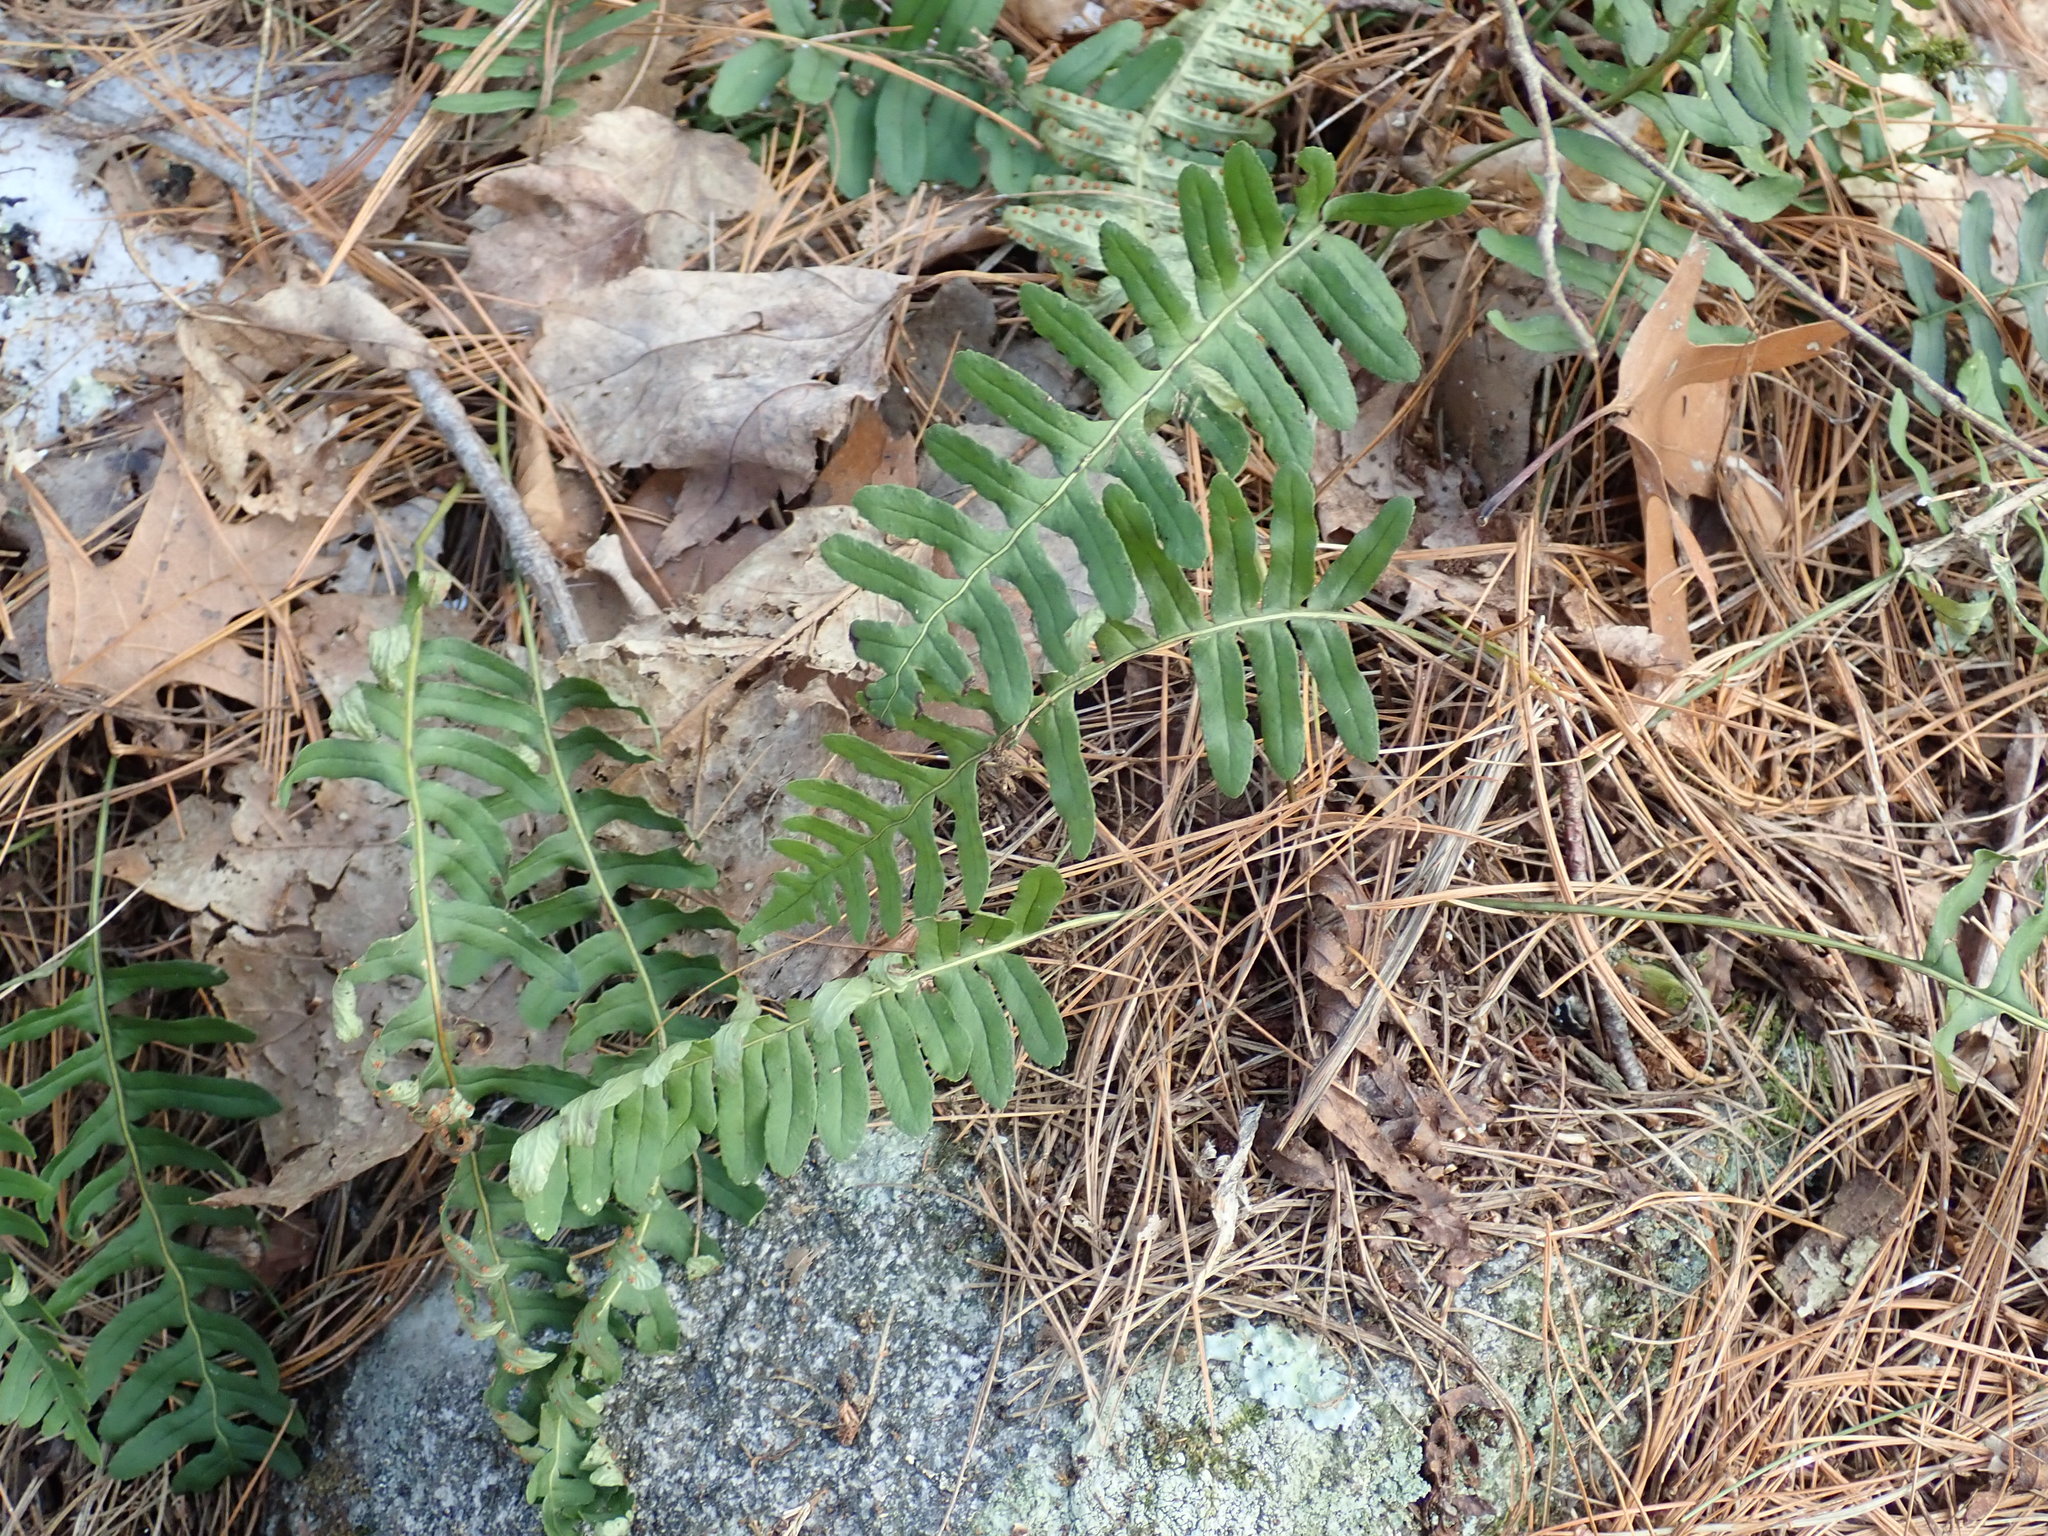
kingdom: Plantae
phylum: Tracheophyta
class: Polypodiopsida
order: Polypodiales
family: Polypodiaceae
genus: Polypodium
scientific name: Polypodium
